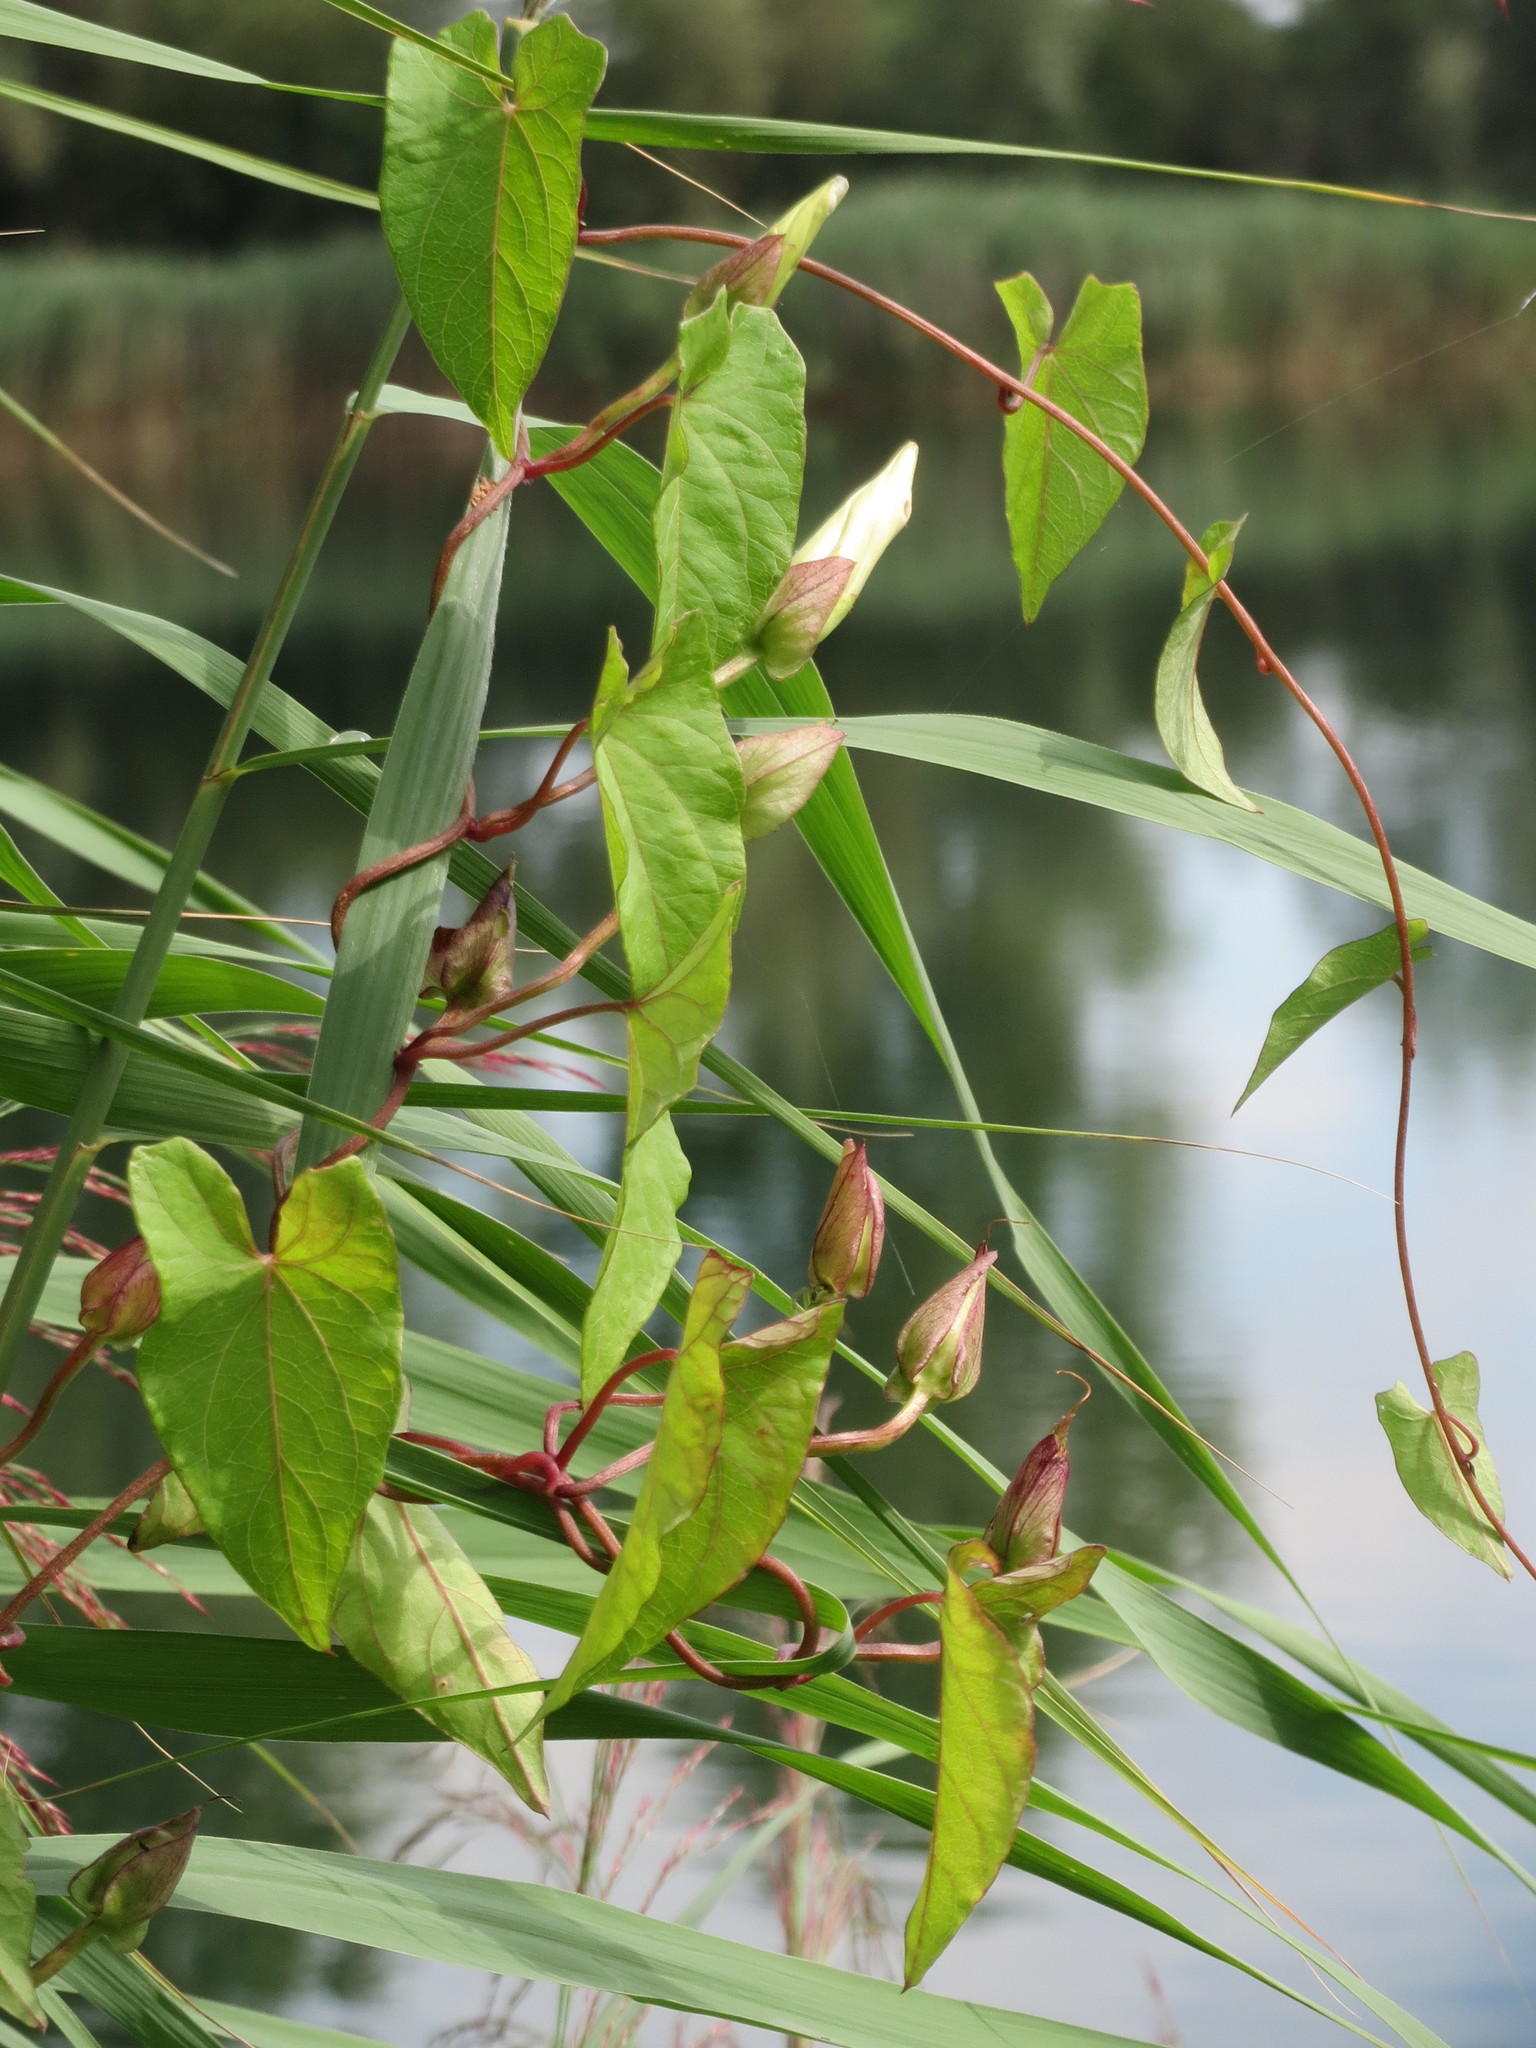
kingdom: Plantae
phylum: Tracheophyta
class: Magnoliopsida
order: Solanales
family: Convolvulaceae
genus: Calystegia
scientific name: Calystegia sepium
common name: Hedge bindweed
